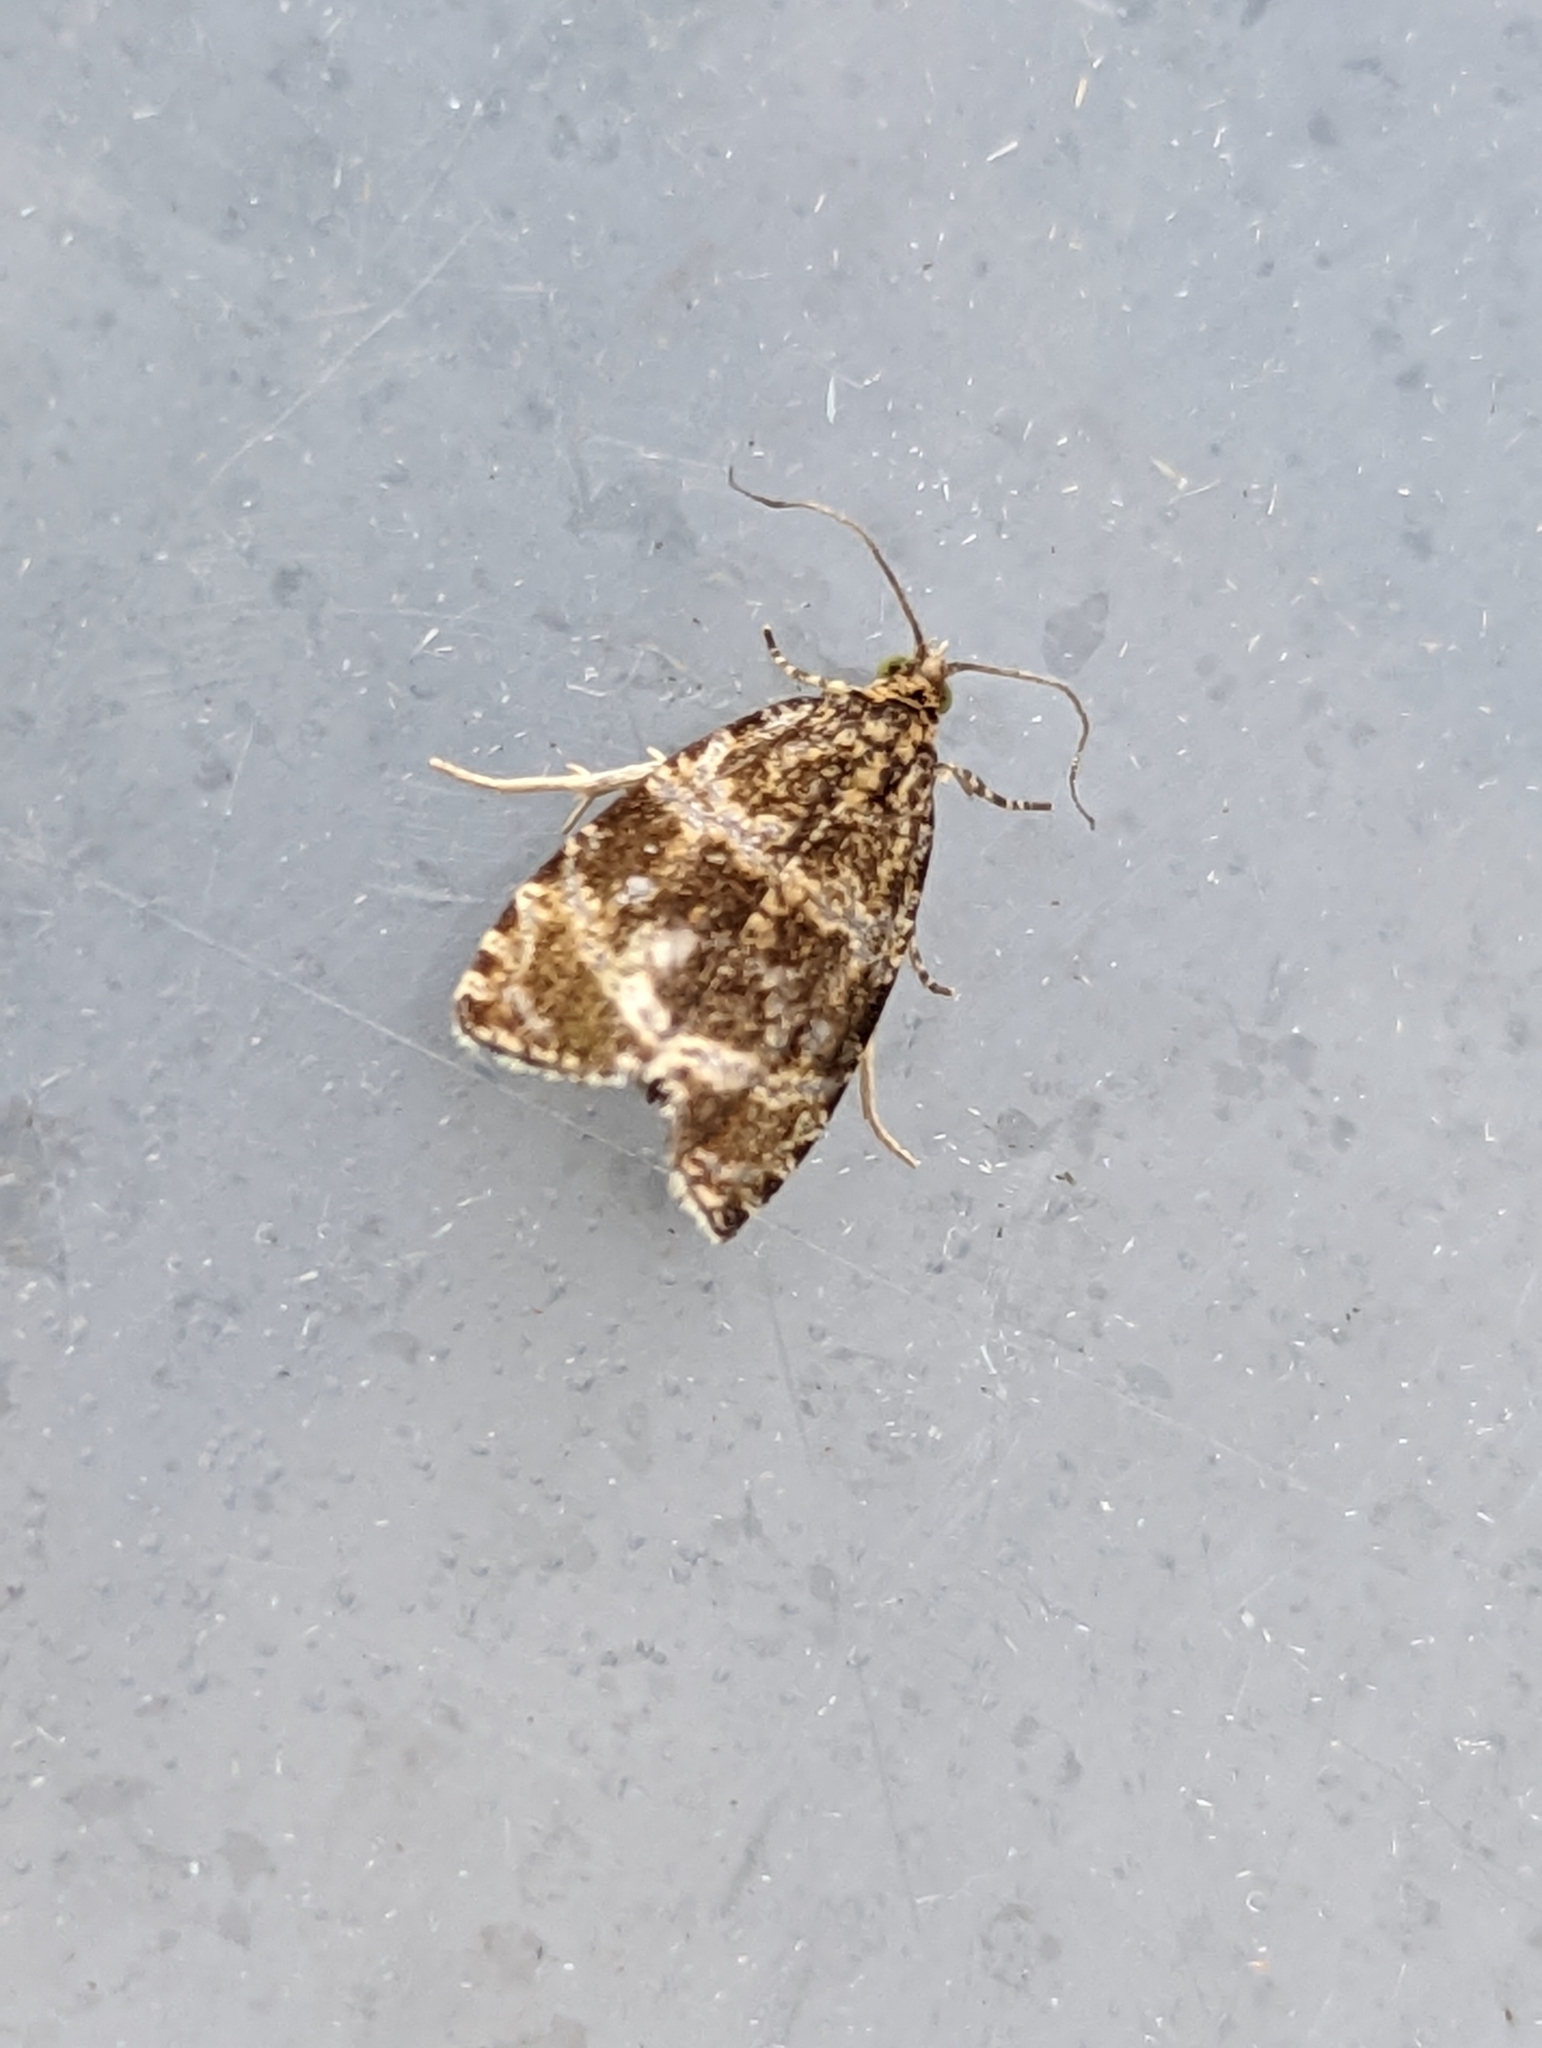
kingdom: Animalia
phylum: Arthropoda
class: Insecta
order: Lepidoptera
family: Tortricidae
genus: Syricoris
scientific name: Syricoris lacunana
